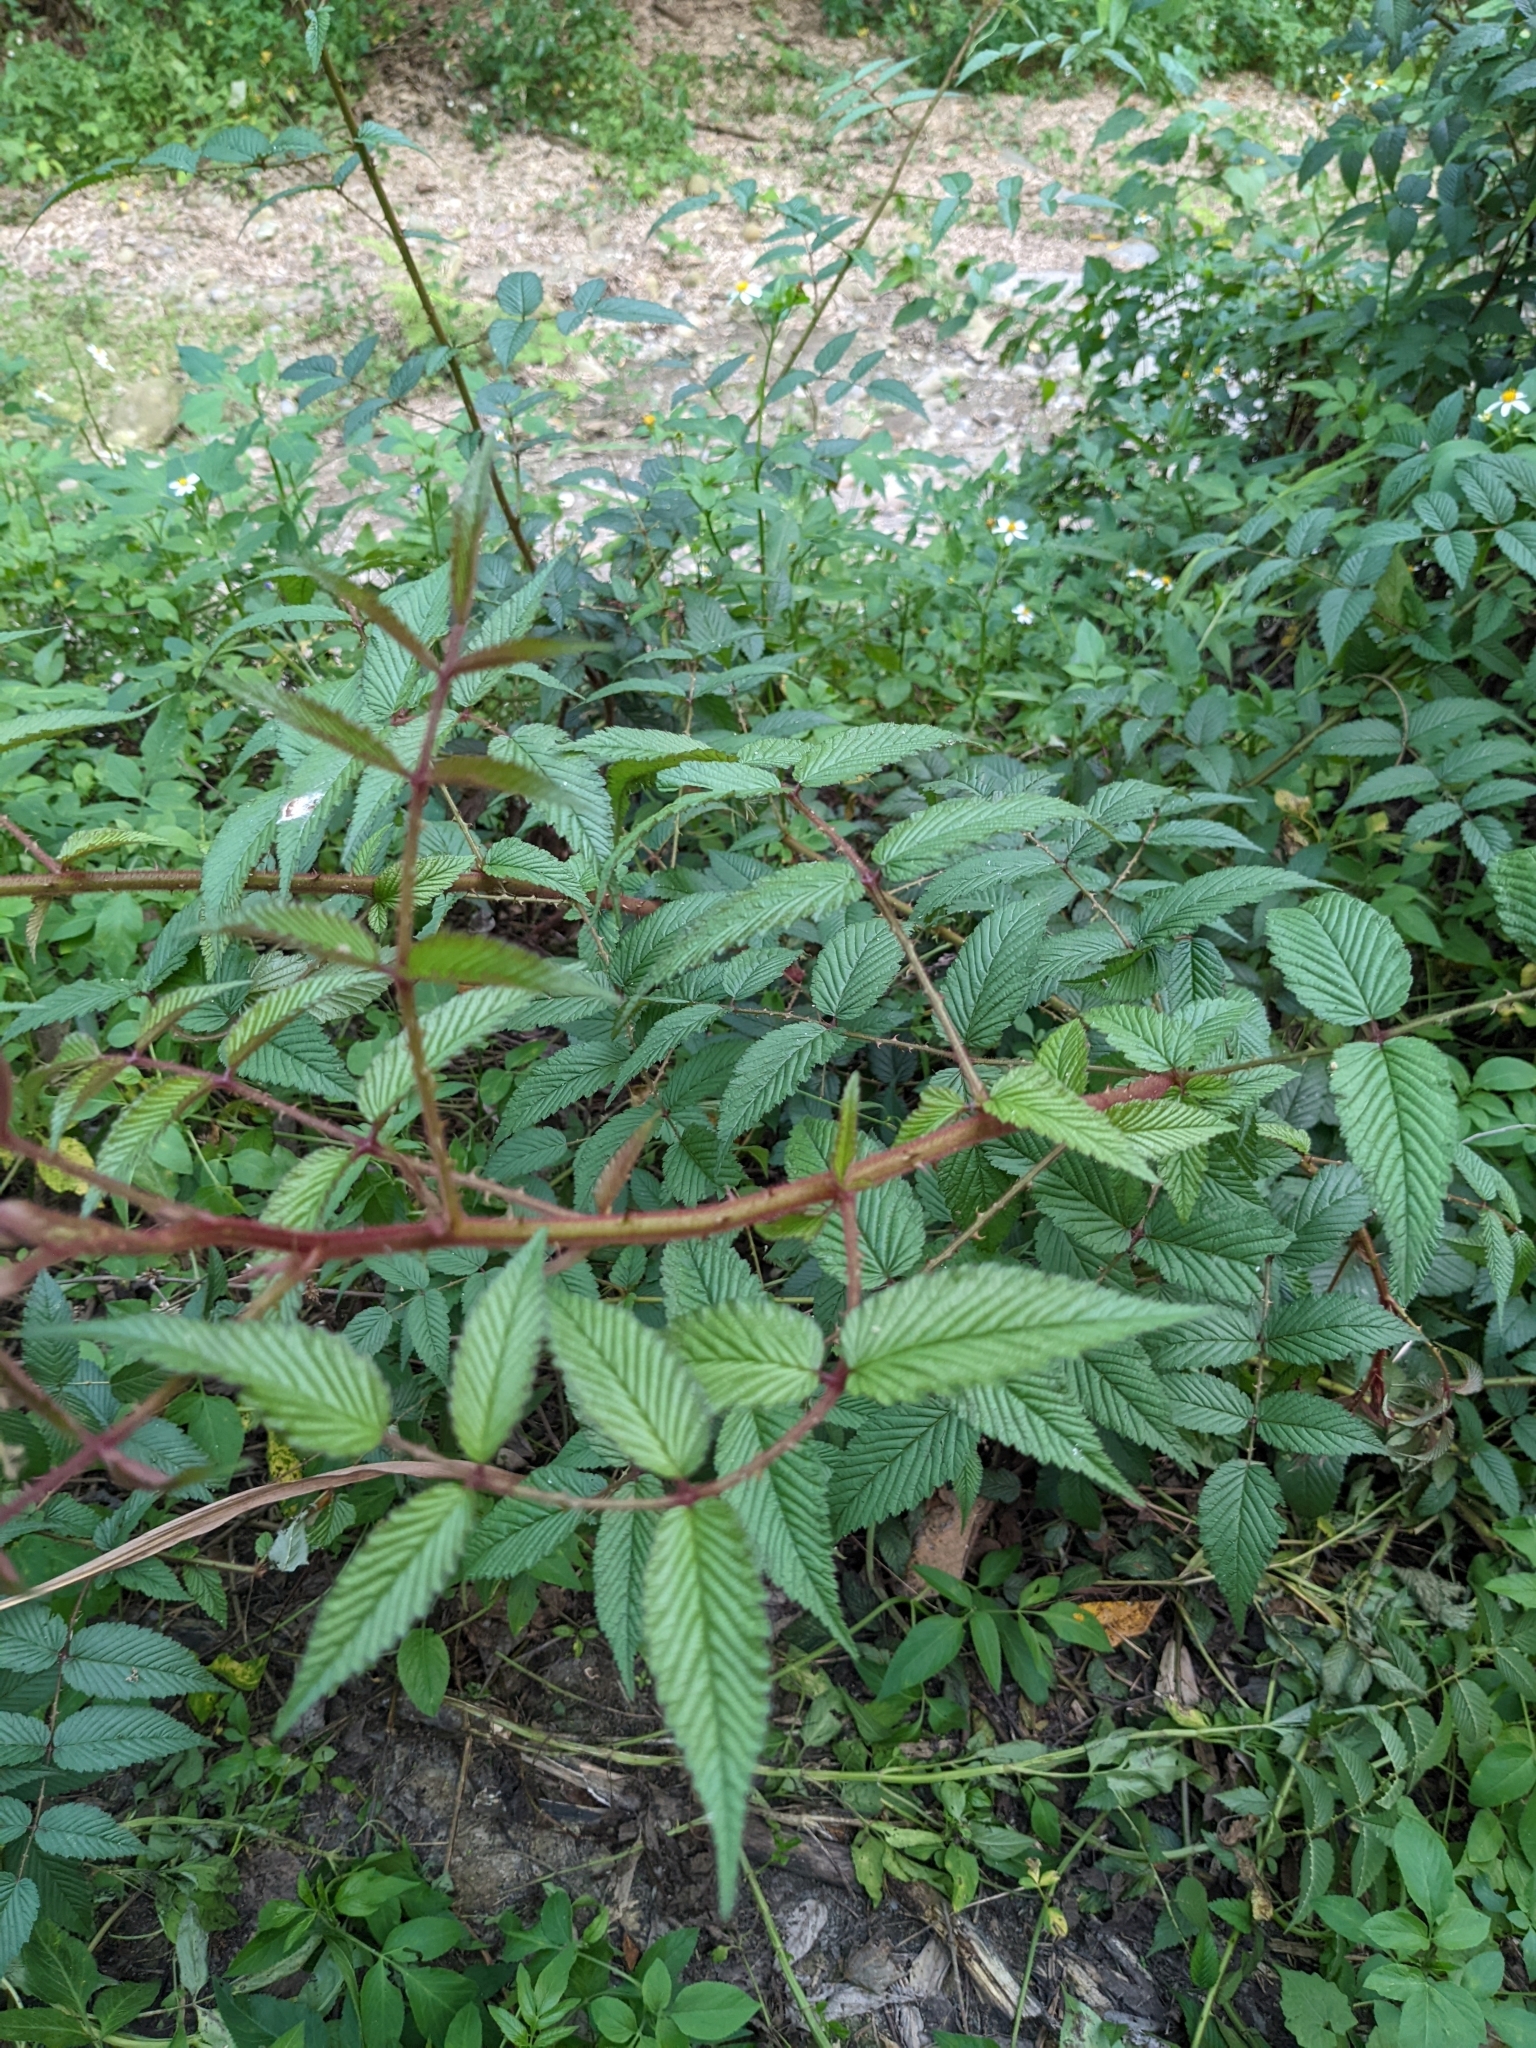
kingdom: Plantae
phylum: Tracheophyta
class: Magnoliopsida
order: Rosales
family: Rosaceae
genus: Rubus
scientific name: Rubus croceacanthus
